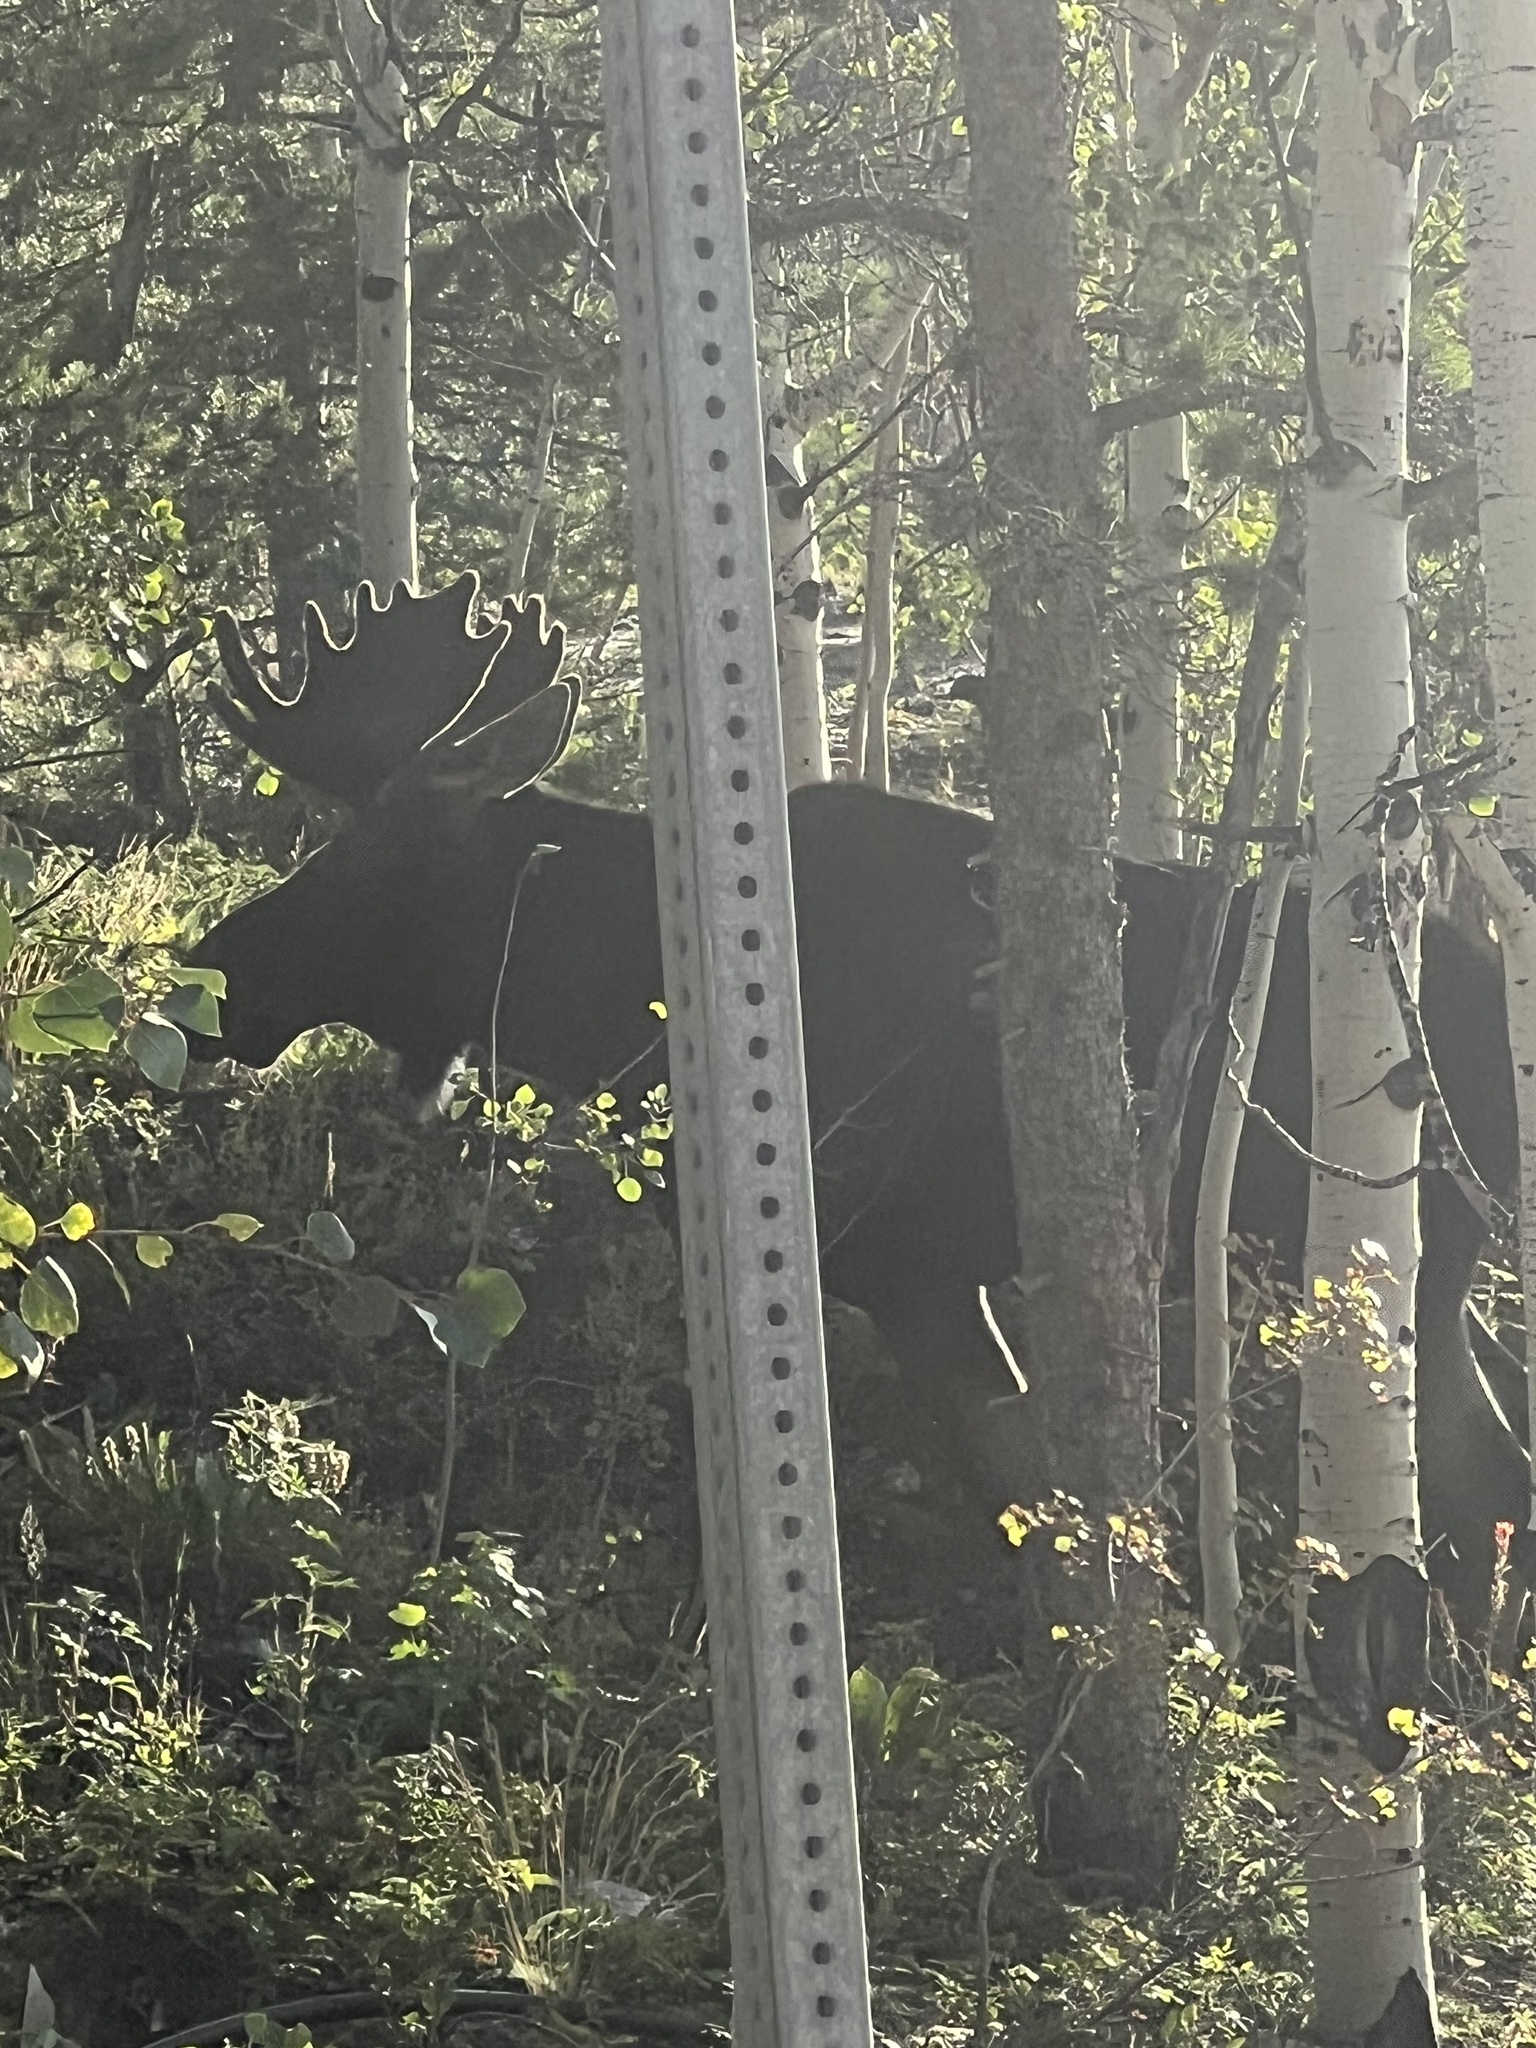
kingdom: Animalia
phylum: Chordata
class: Mammalia
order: Artiodactyla
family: Cervidae
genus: Alces
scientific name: Alces alces
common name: Moose
